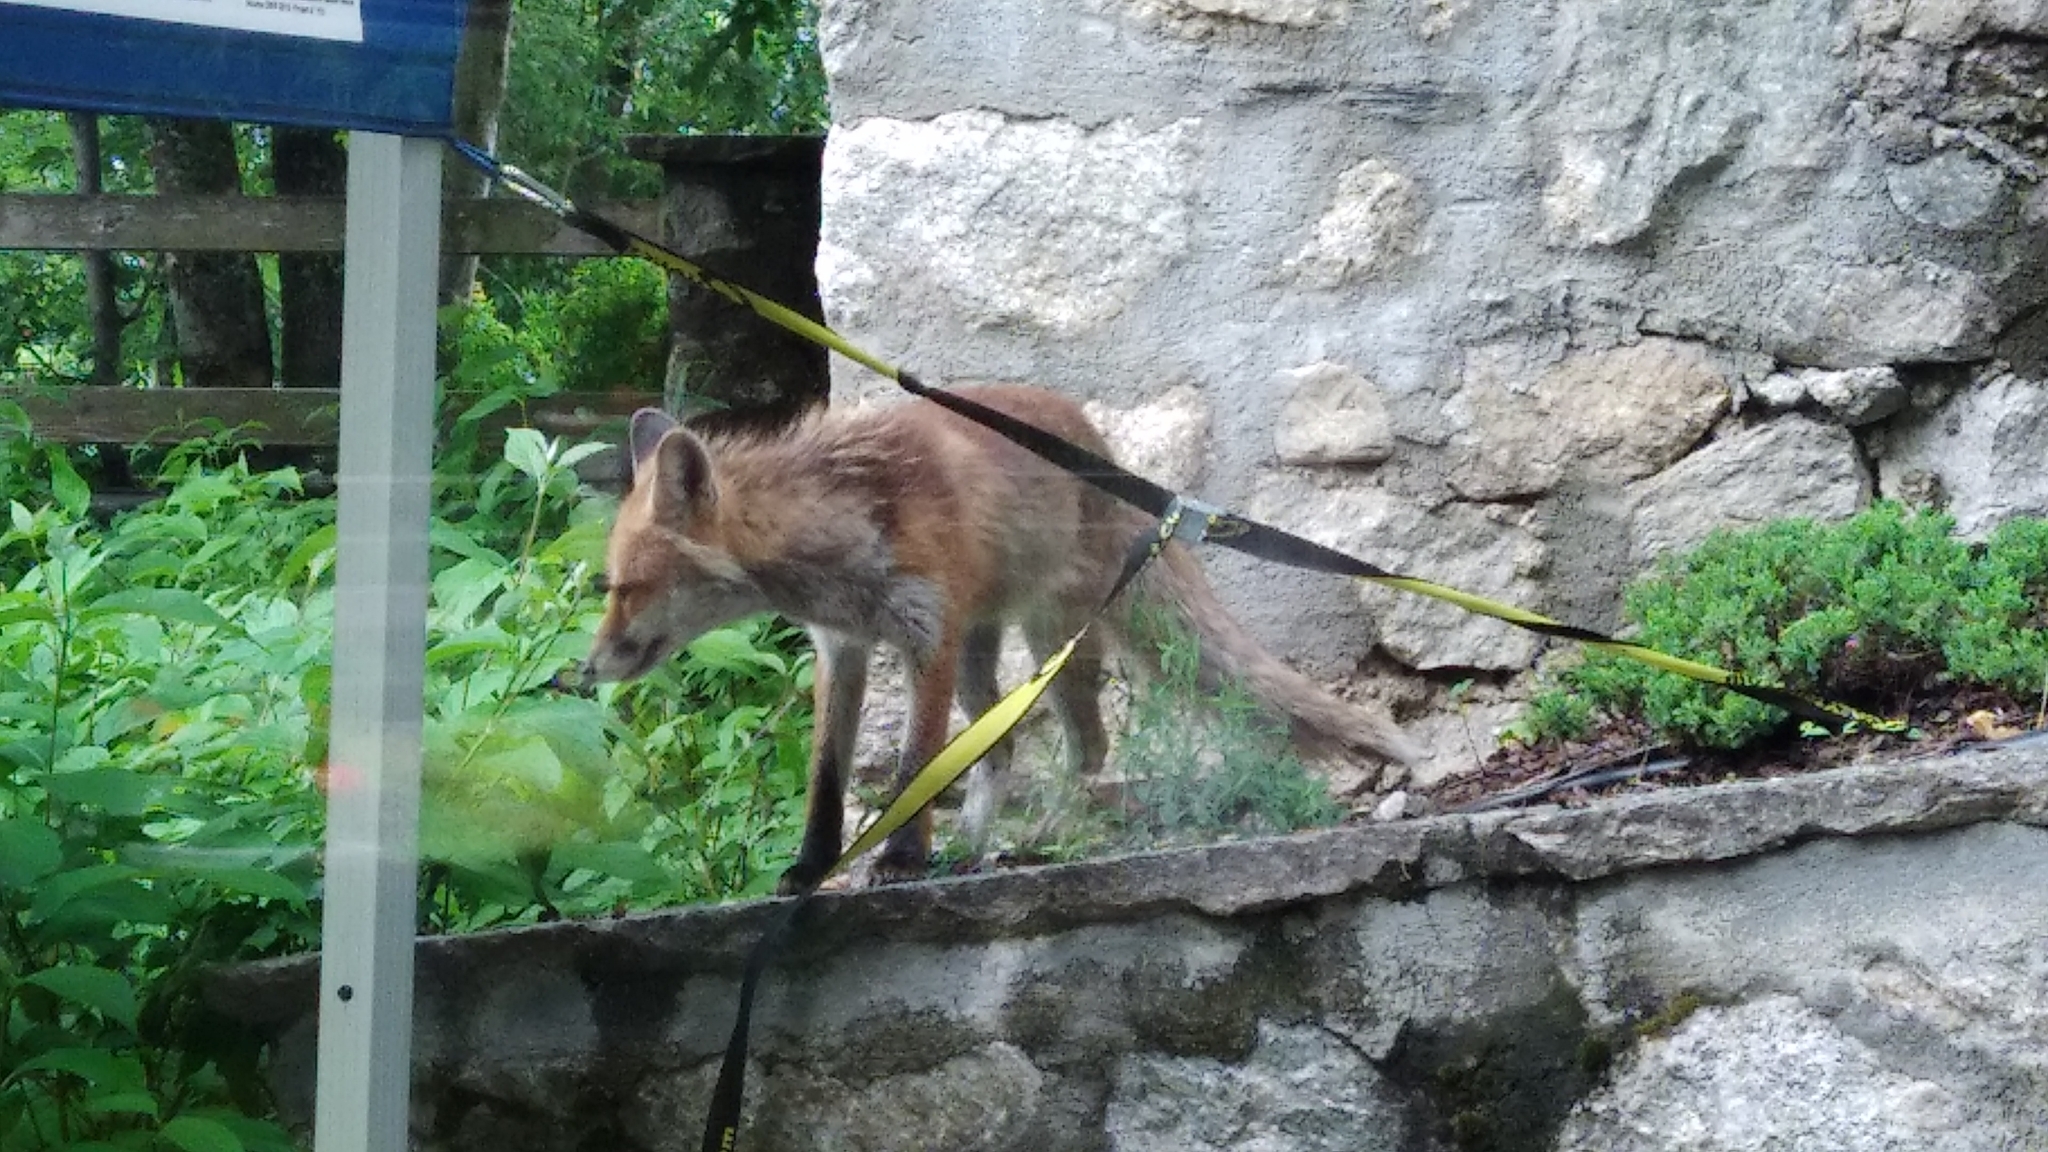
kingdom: Animalia
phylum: Chordata
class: Mammalia
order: Carnivora
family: Canidae
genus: Vulpes
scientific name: Vulpes vulpes
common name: Red fox
